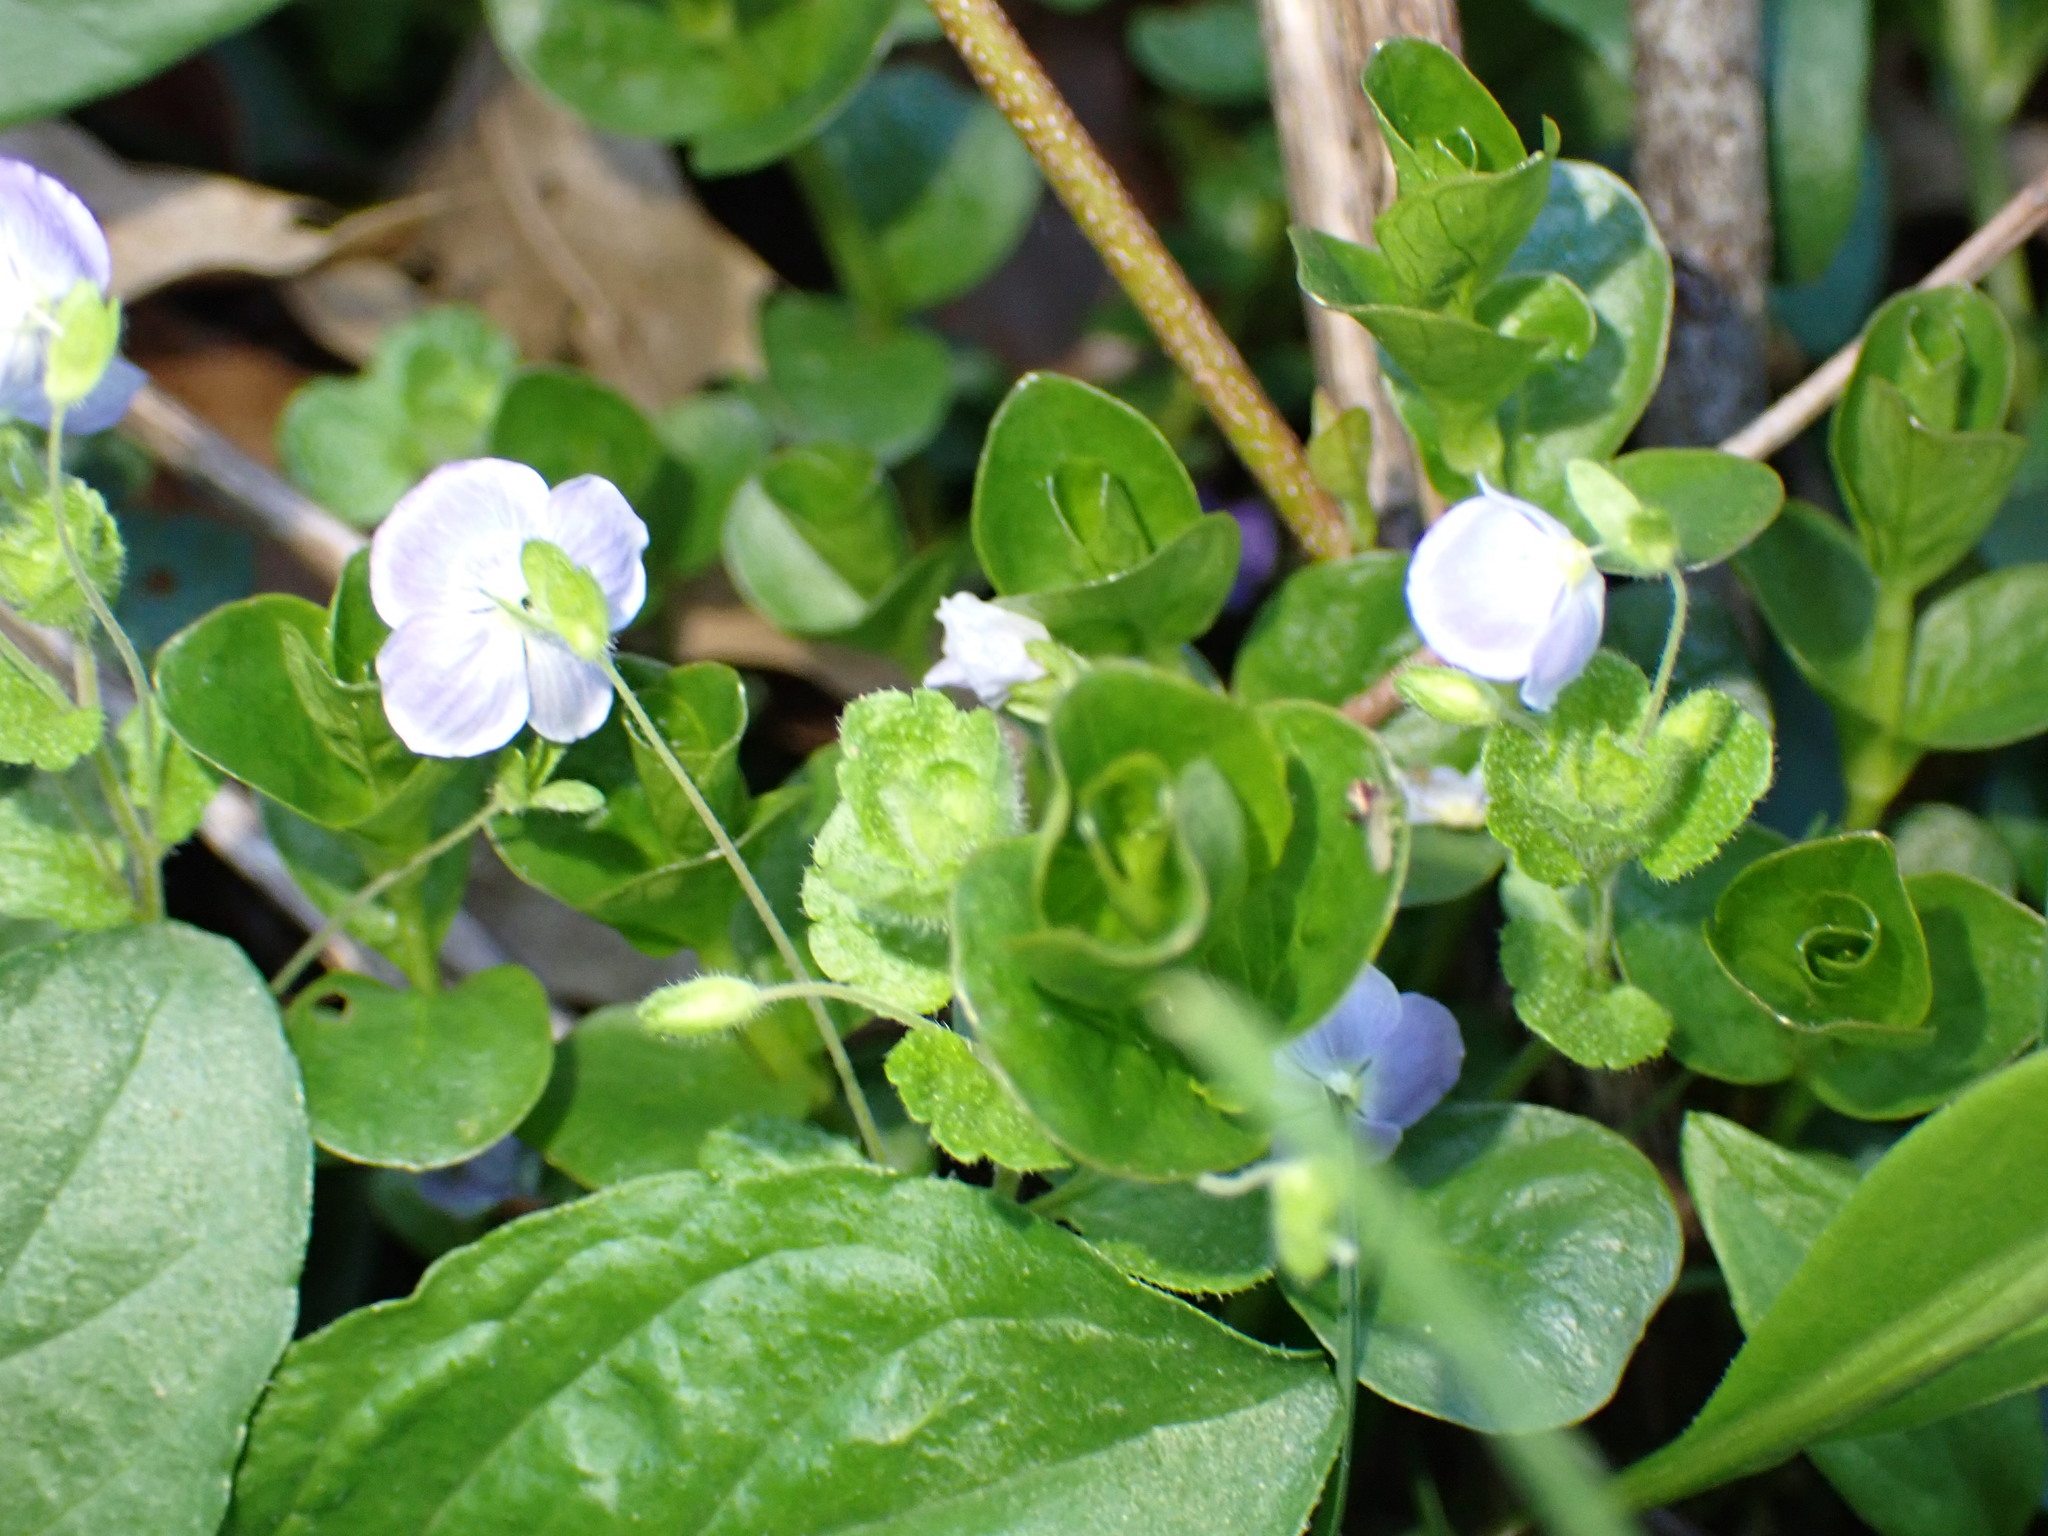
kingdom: Plantae
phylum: Tracheophyta
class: Magnoliopsida
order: Lamiales
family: Plantaginaceae
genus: Veronica
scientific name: Veronica filiformis
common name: Slender speedwell
